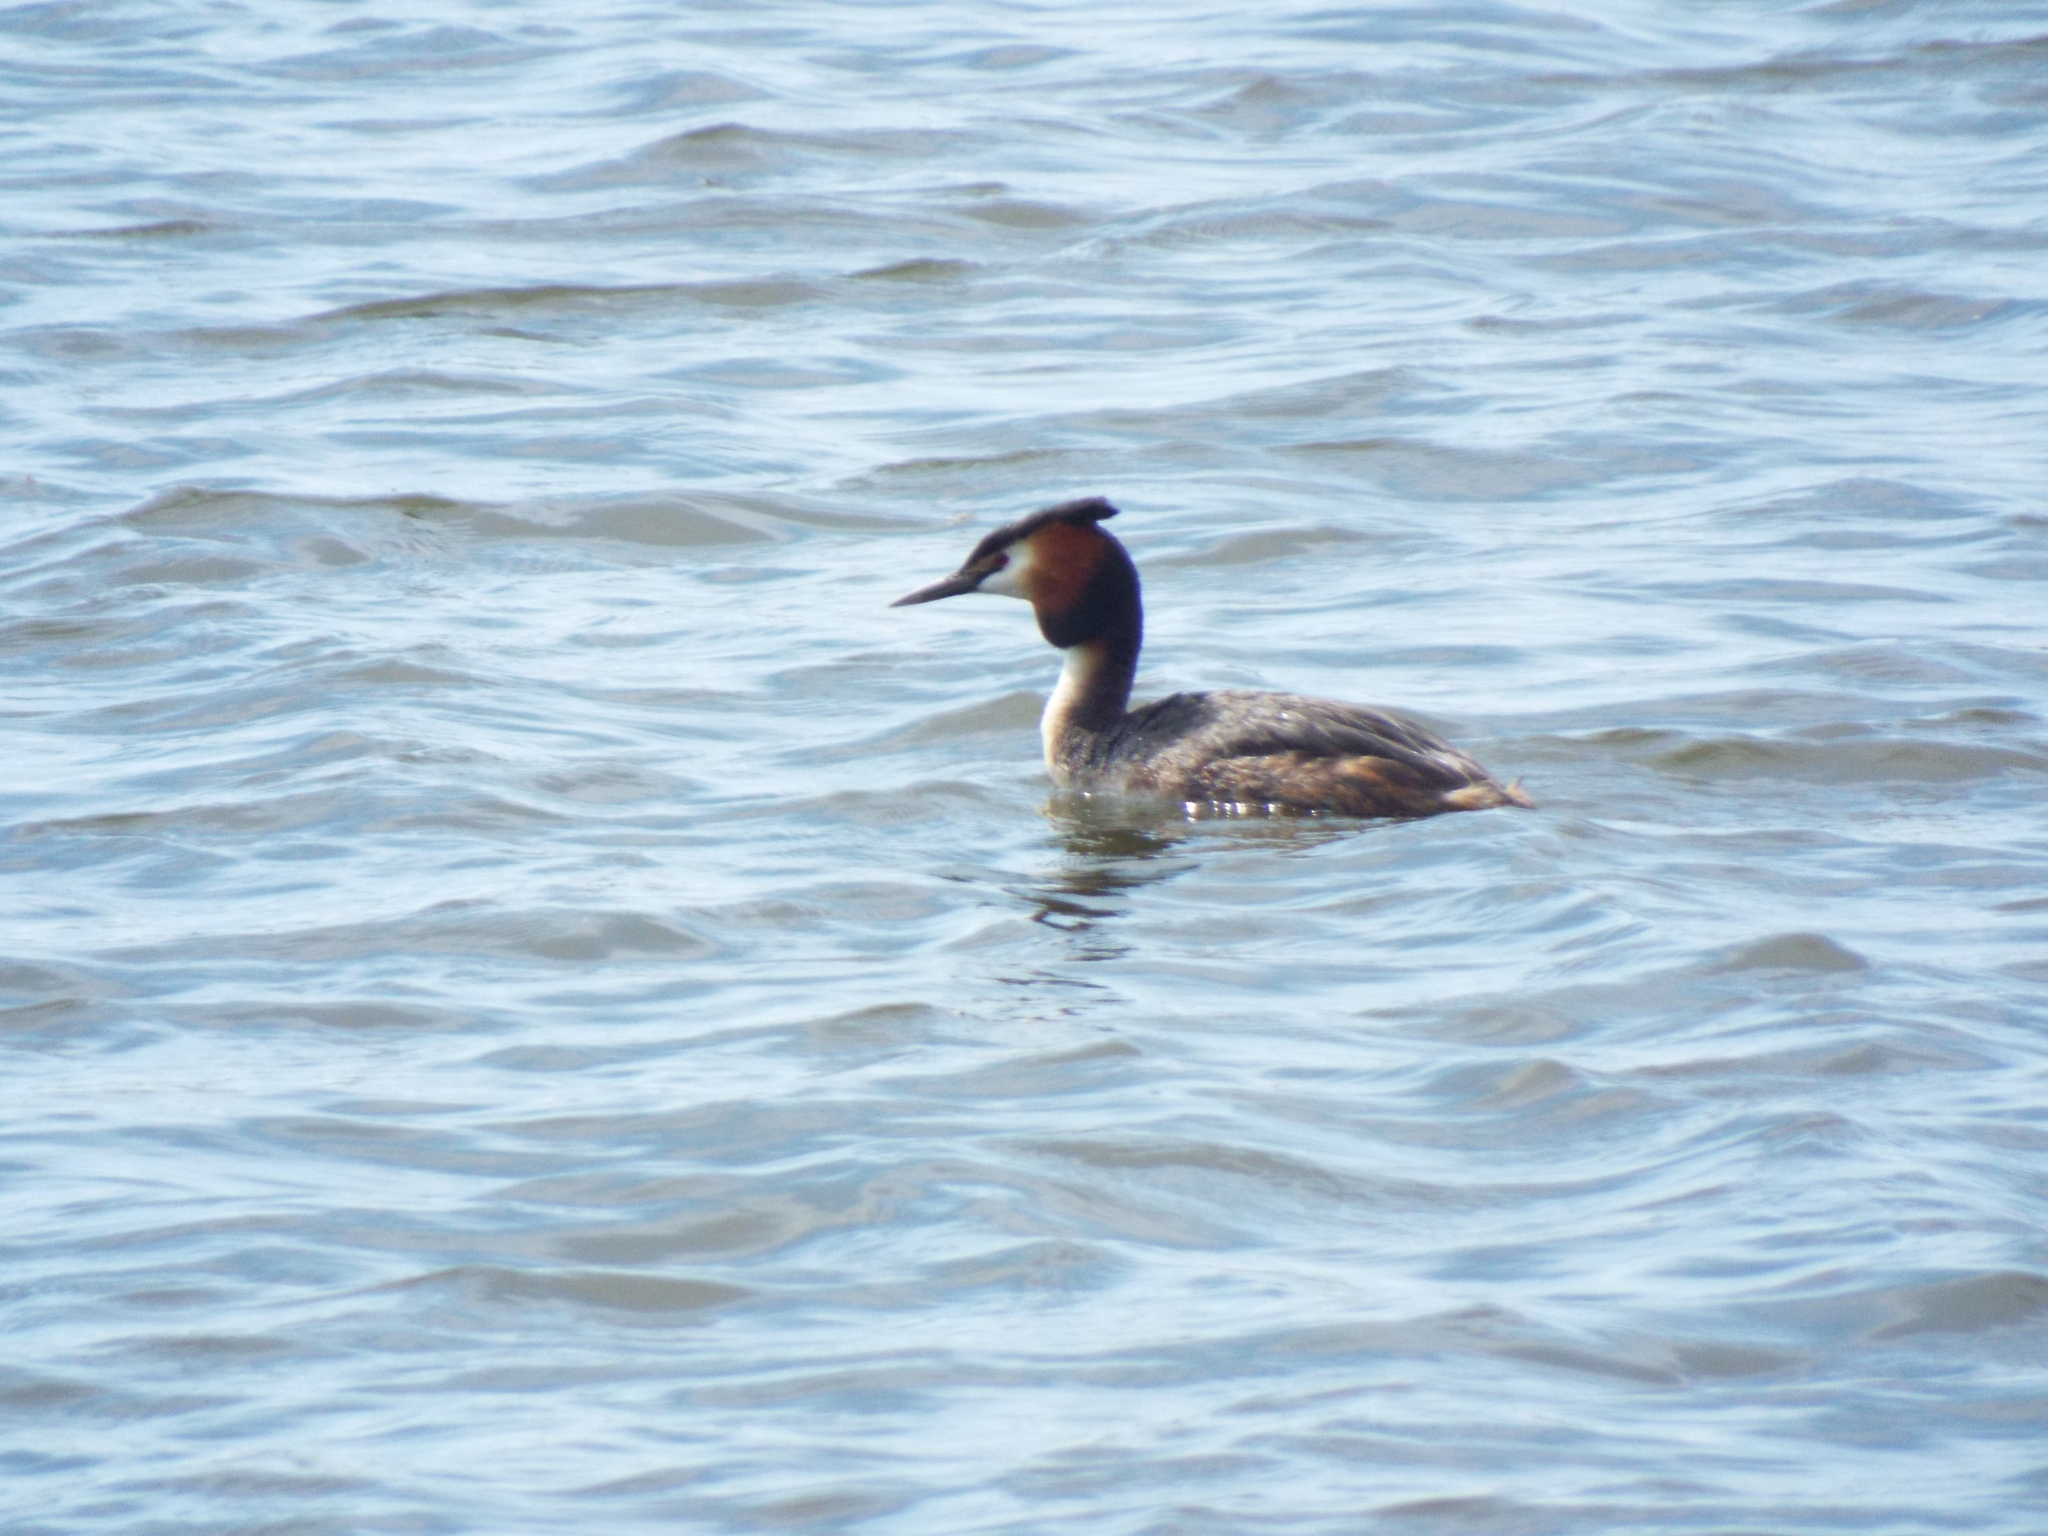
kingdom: Animalia
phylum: Chordata
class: Aves
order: Podicipediformes
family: Podicipedidae
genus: Podiceps
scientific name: Podiceps cristatus
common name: Great crested grebe
